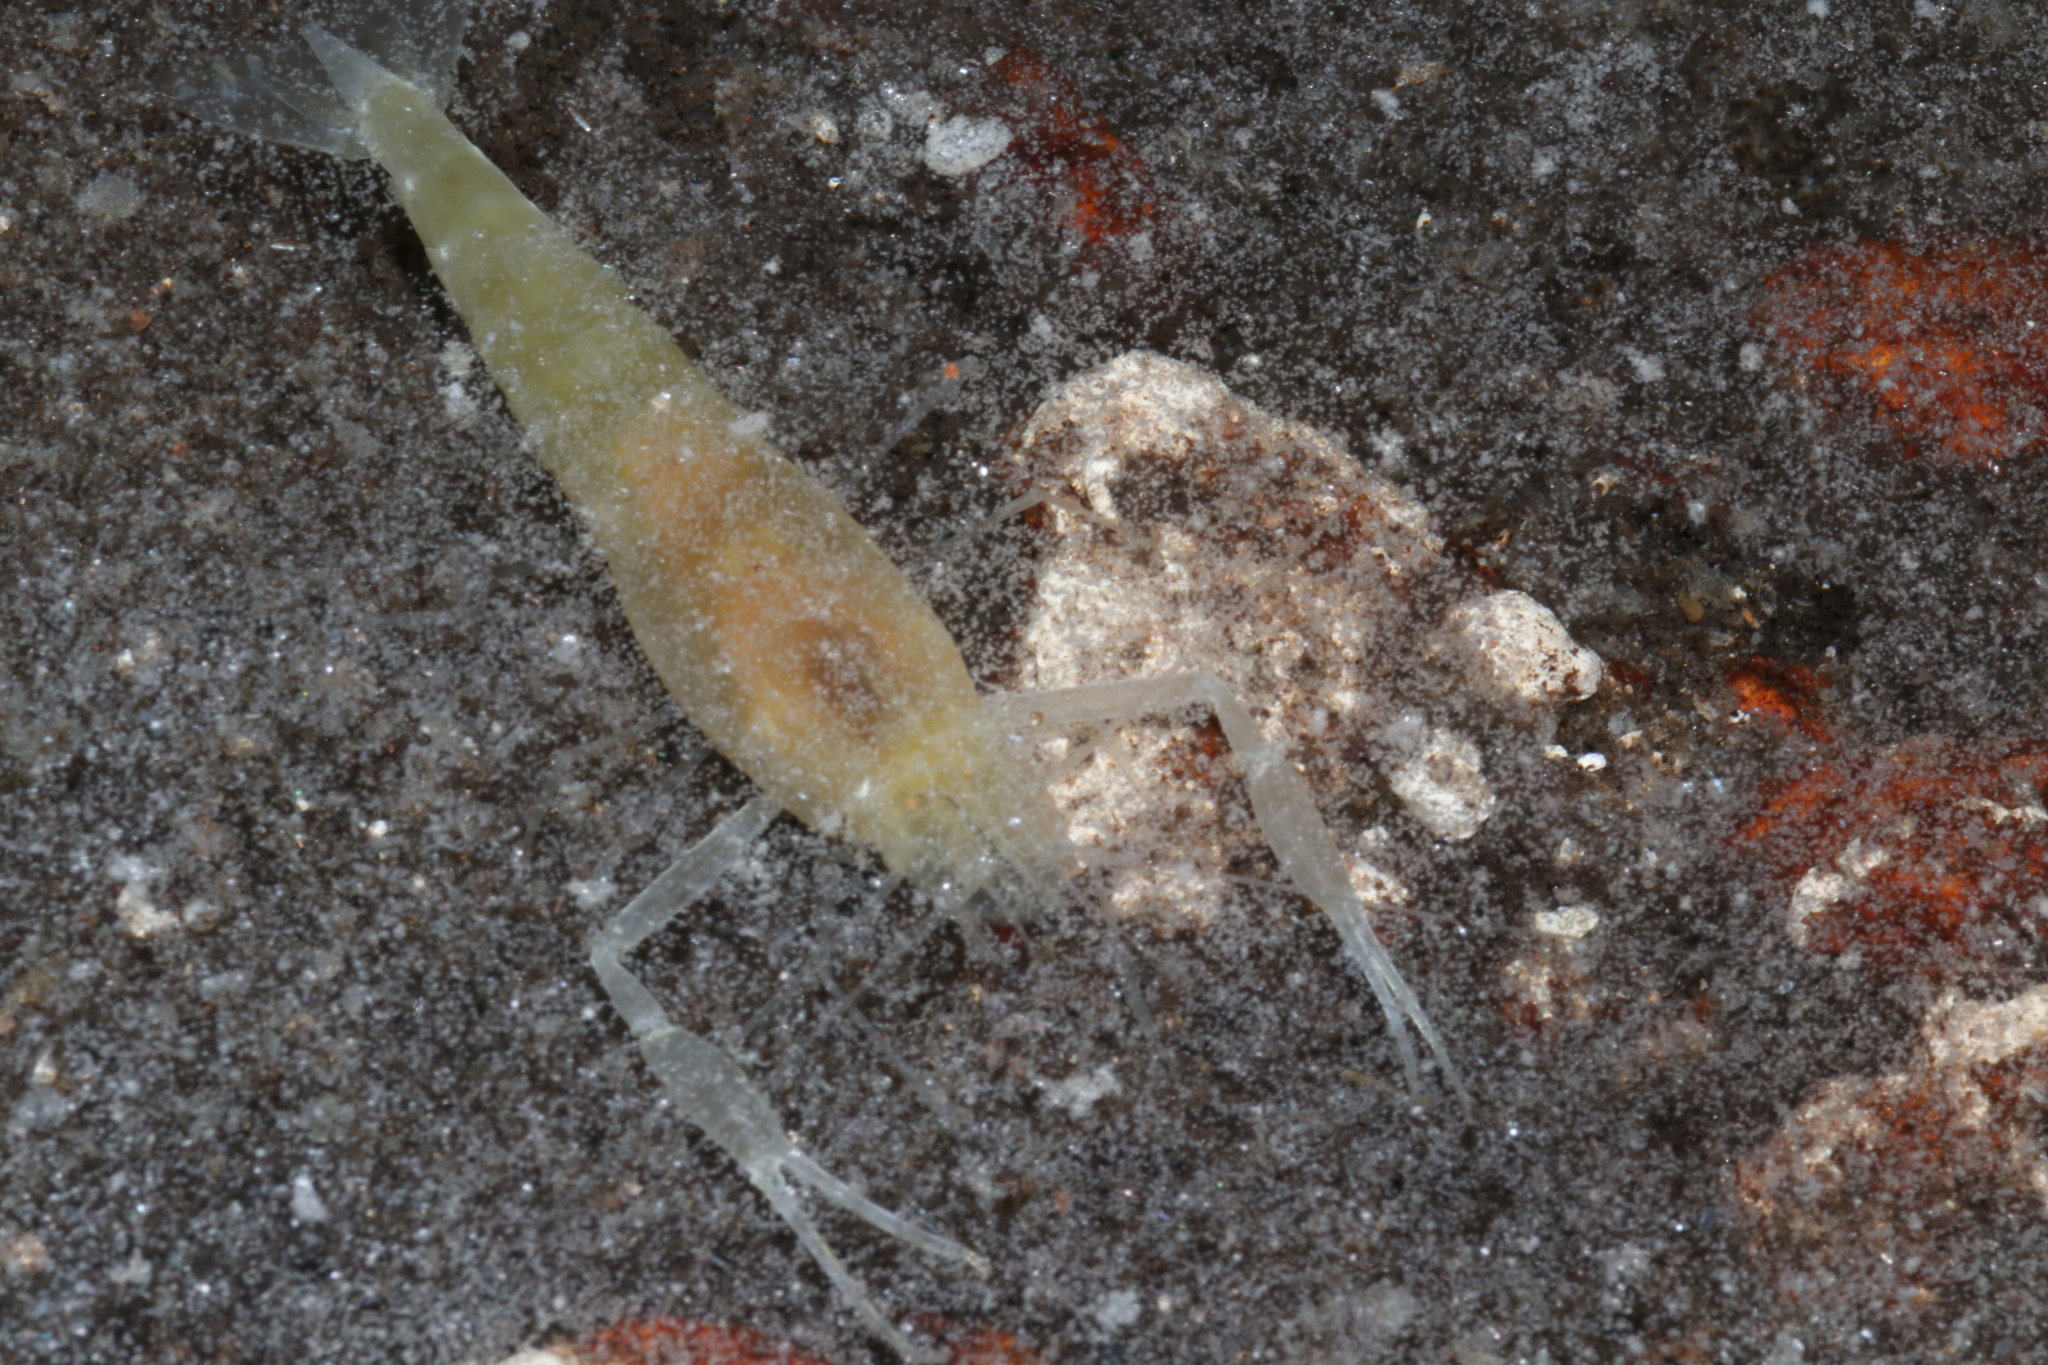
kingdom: Animalia
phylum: Arthropoda
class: Malacostraca
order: Decapoda
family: Palaemonidae
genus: Creaseria
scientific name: Creaseria morleyi
